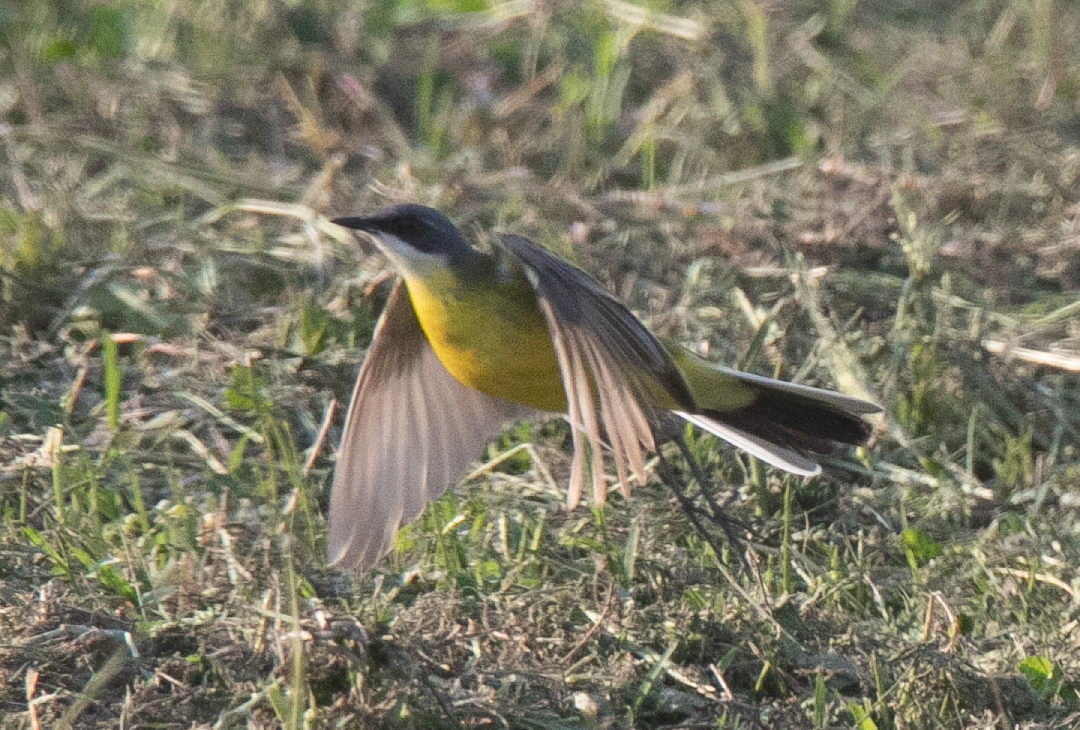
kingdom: Animalia
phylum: Chordata
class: Aves
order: Passeriformes
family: Motacillidae
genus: Motacilla
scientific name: Motacilla flava
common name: Western yellow wagtail
